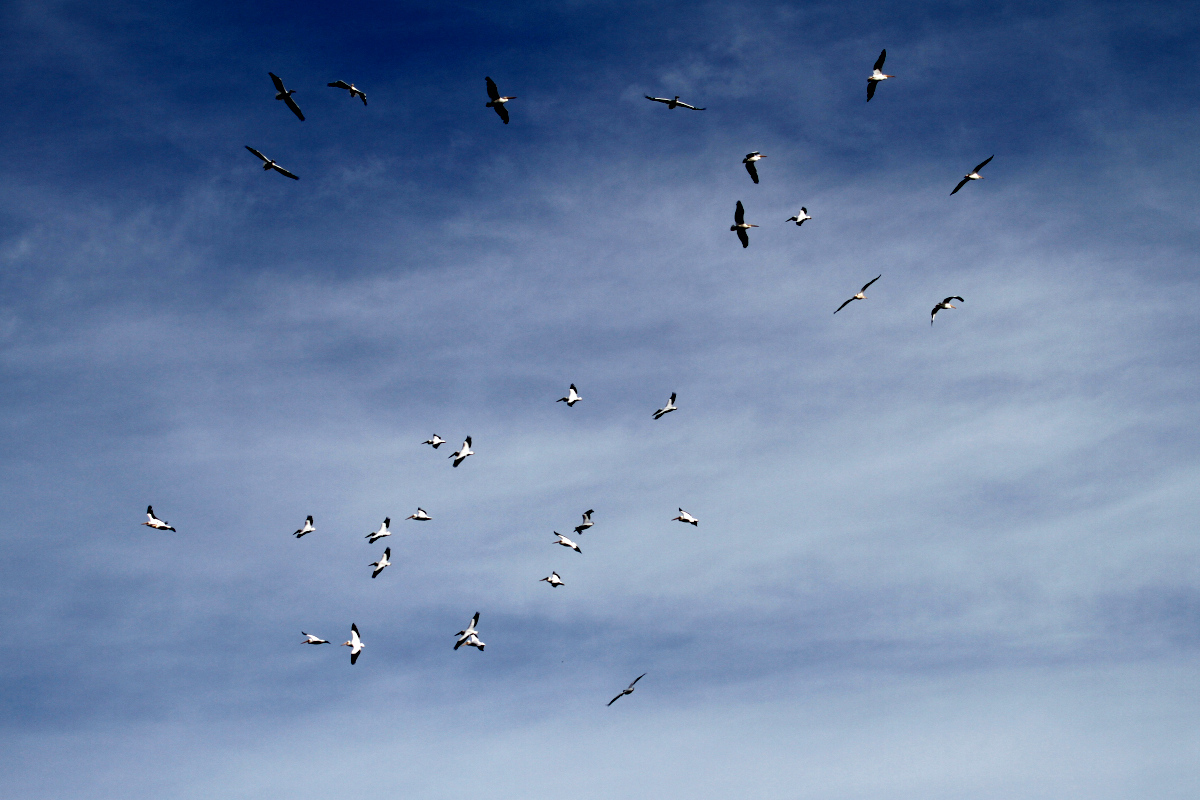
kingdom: Animalia
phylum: Chordata
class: Aves
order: Pelecaniformes
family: Pelecanidae
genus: Pelecanus
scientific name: Pelecanus erythrorhynchos
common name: American white pelican
